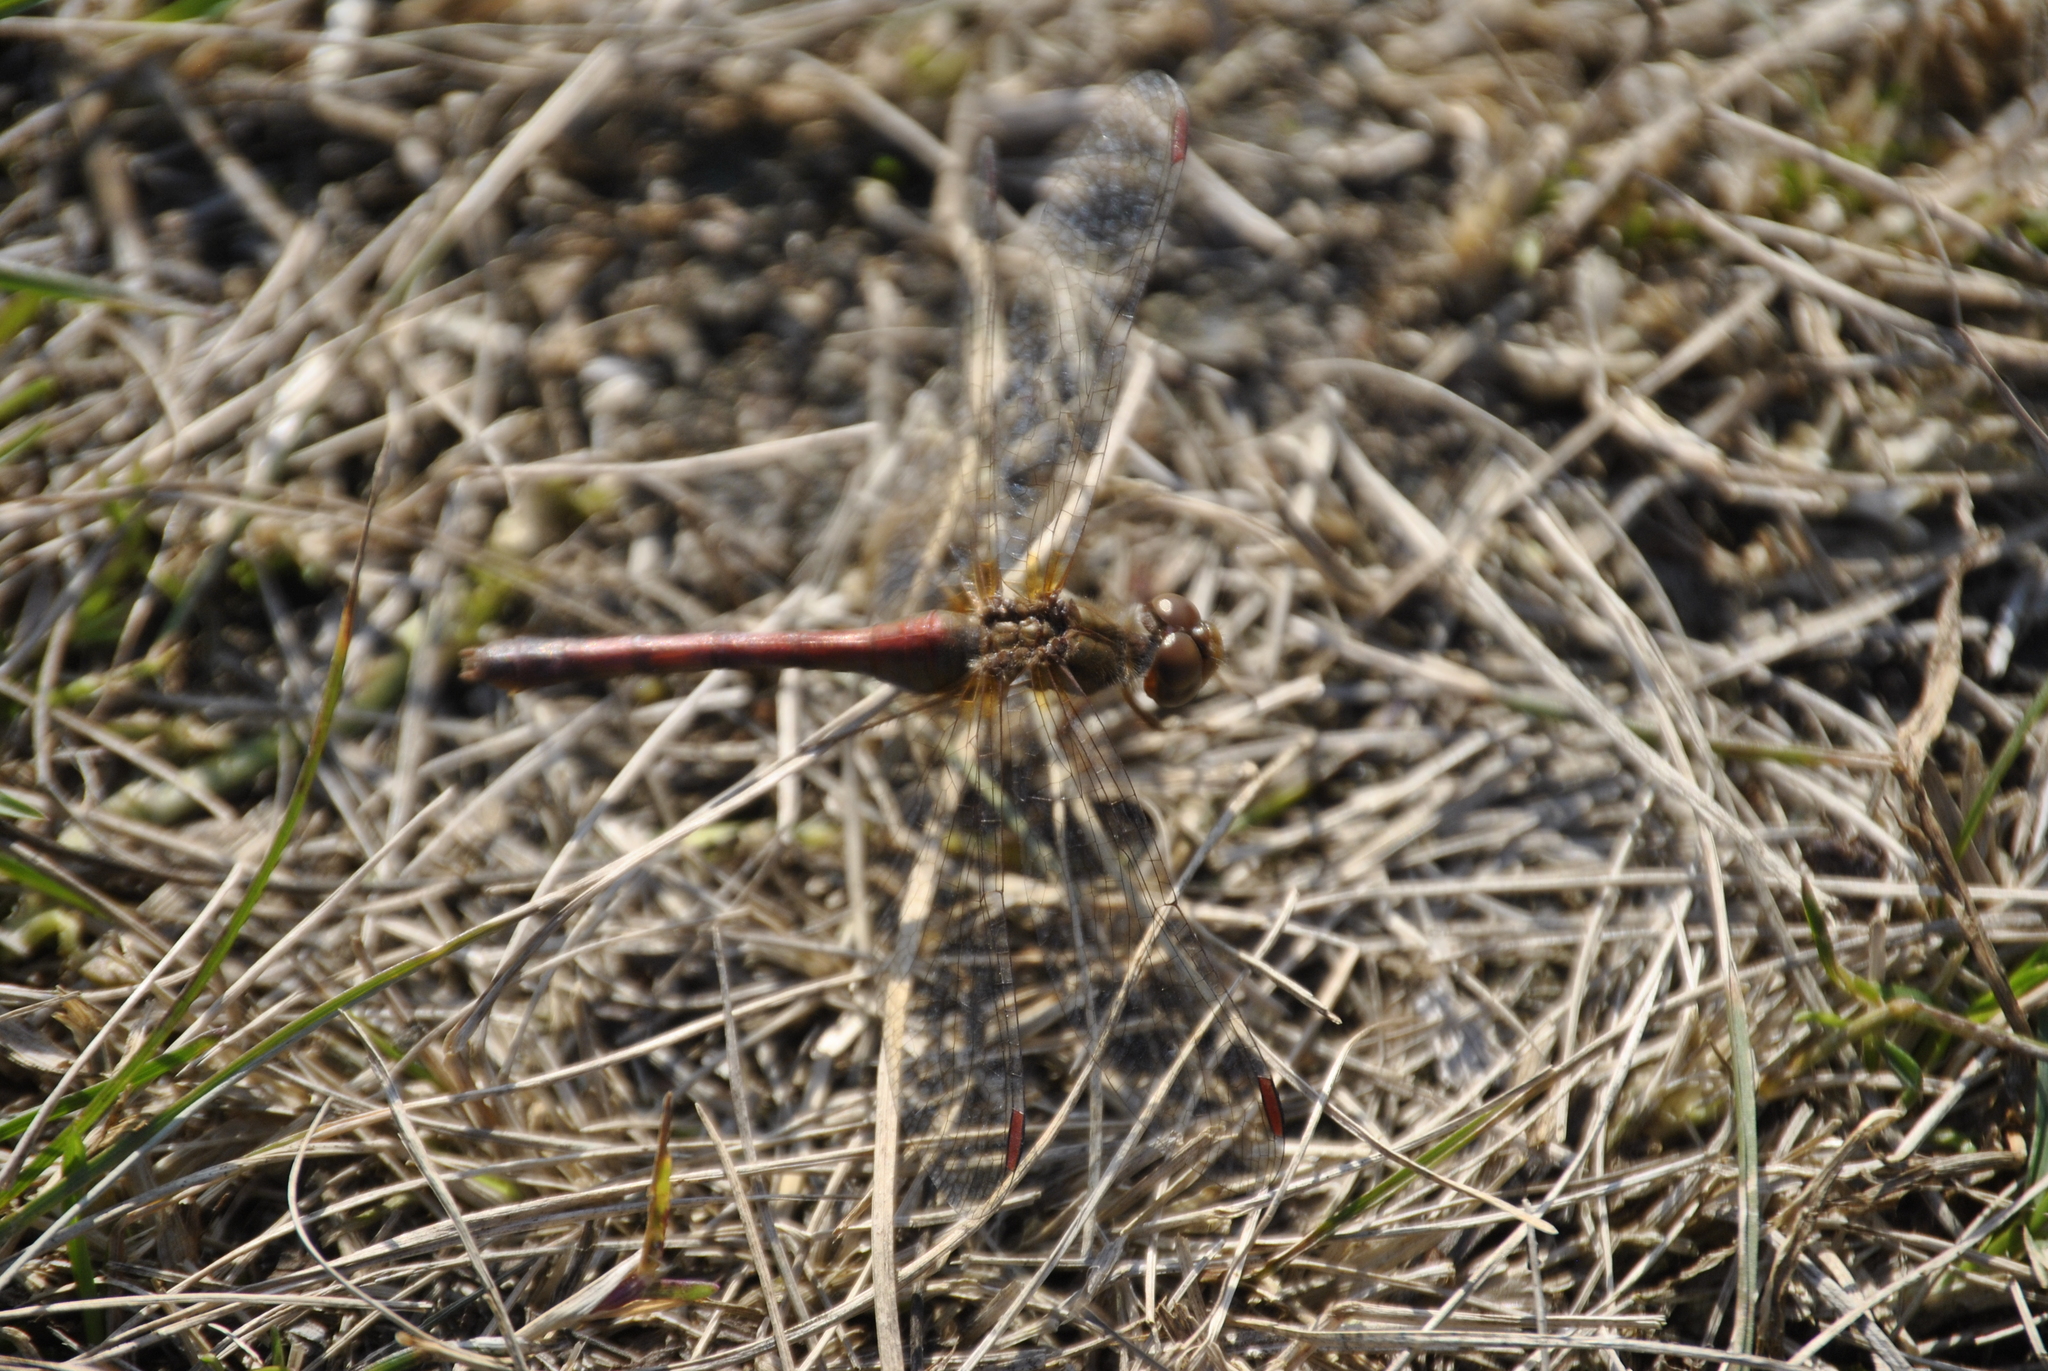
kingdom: Animalia
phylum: Arthropoda
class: Insecta
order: Odonata
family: Libellulidae
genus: Sympetrum
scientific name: Sympetrum vicinum
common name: Autumn meadowhawk
